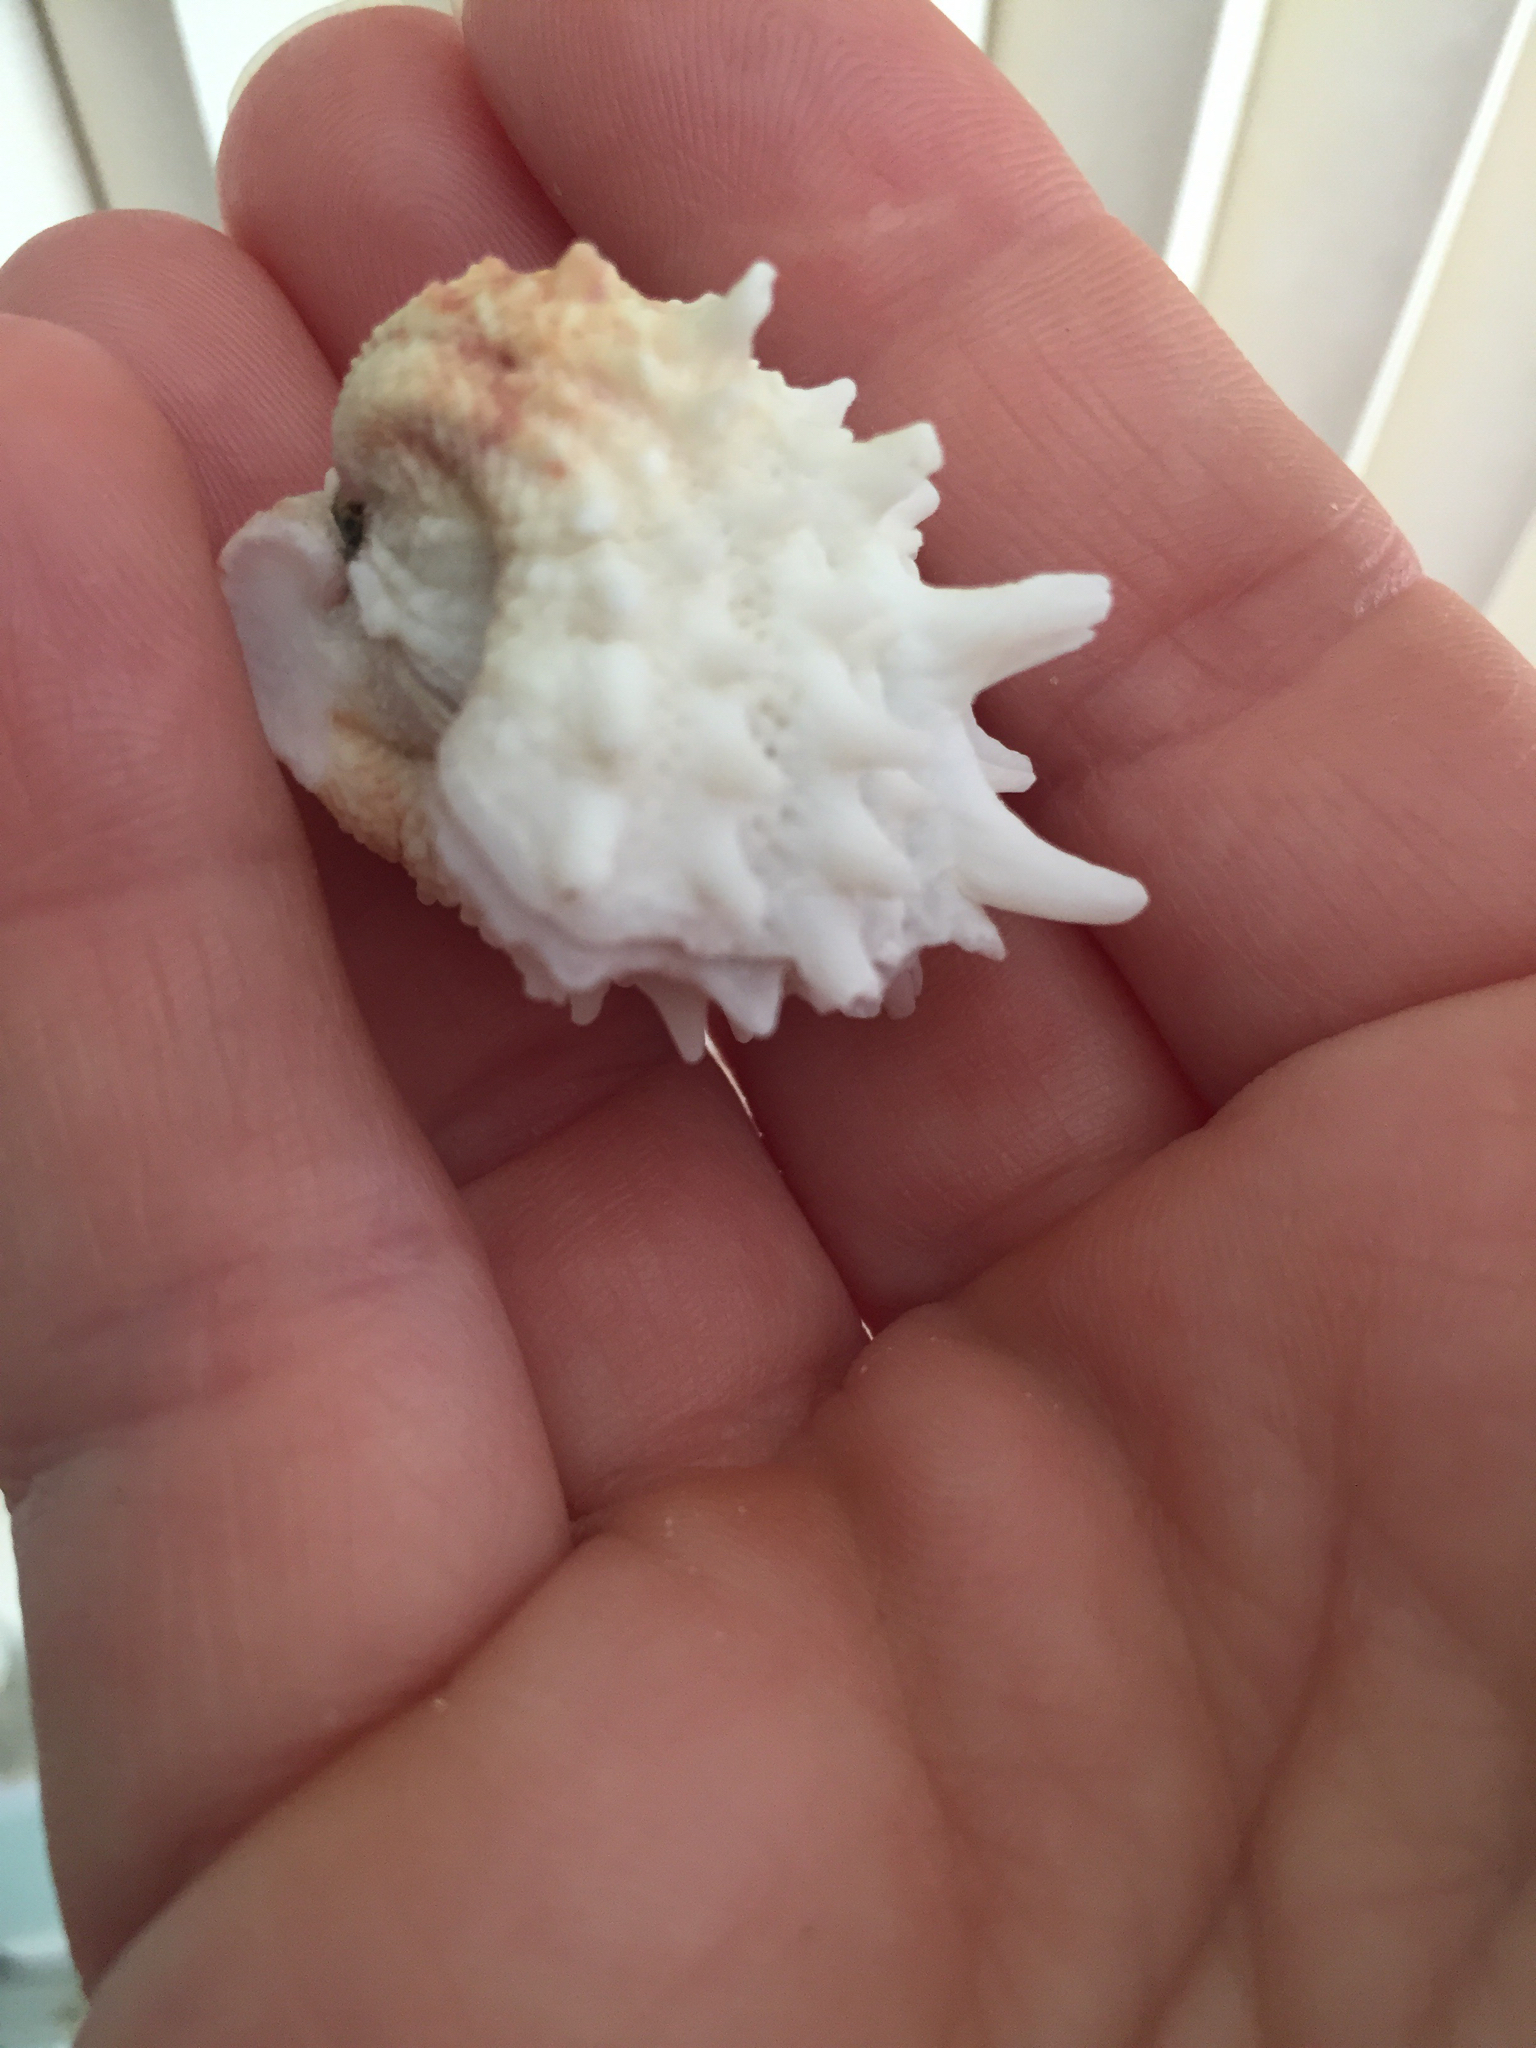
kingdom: Animalia
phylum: Mollusca
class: Bivalvia
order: Venerida
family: Chamidae
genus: Arcinella
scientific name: Arcinella cornuta
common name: Florida spiny jewel box
